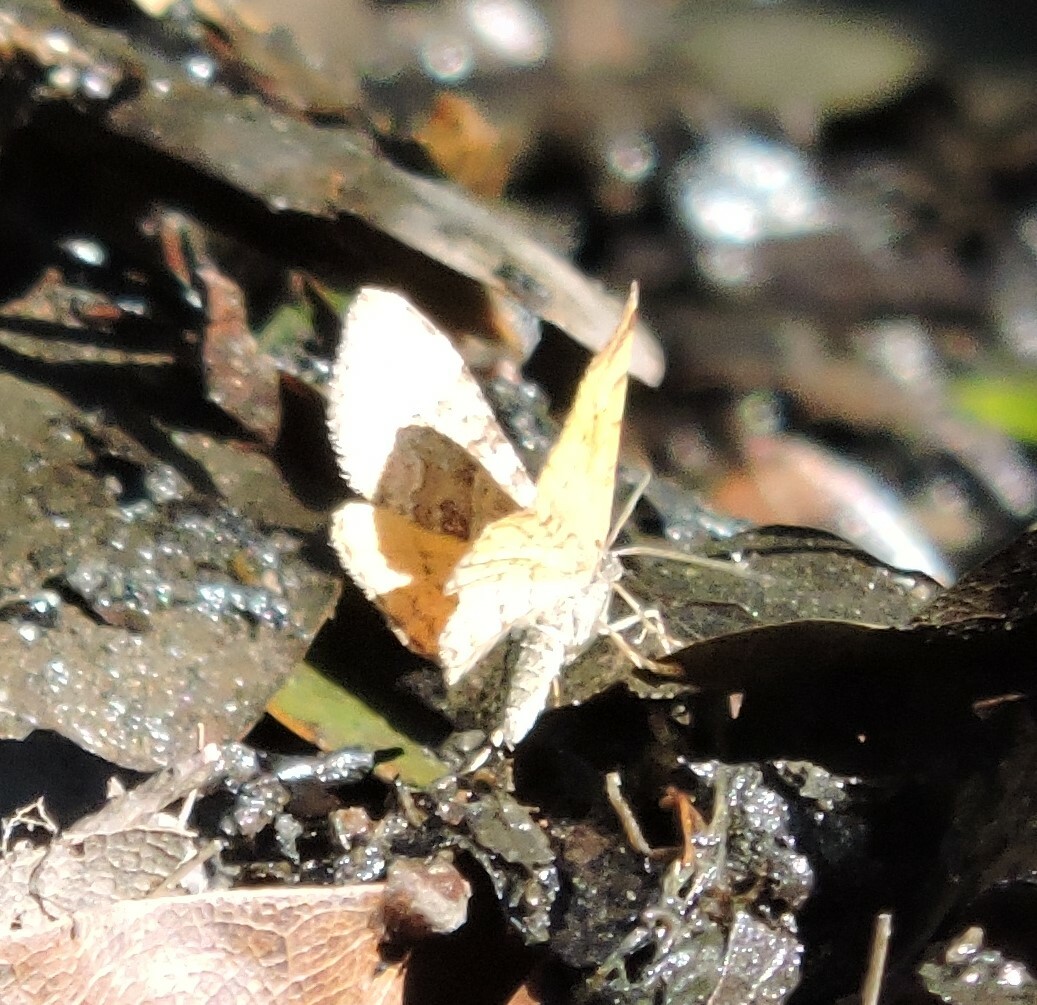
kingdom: Animalia
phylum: Arthropoda
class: Insecta
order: Lepidoptera
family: Geometridae
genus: Epirrhoe
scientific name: Epirrhoe plebeculata
